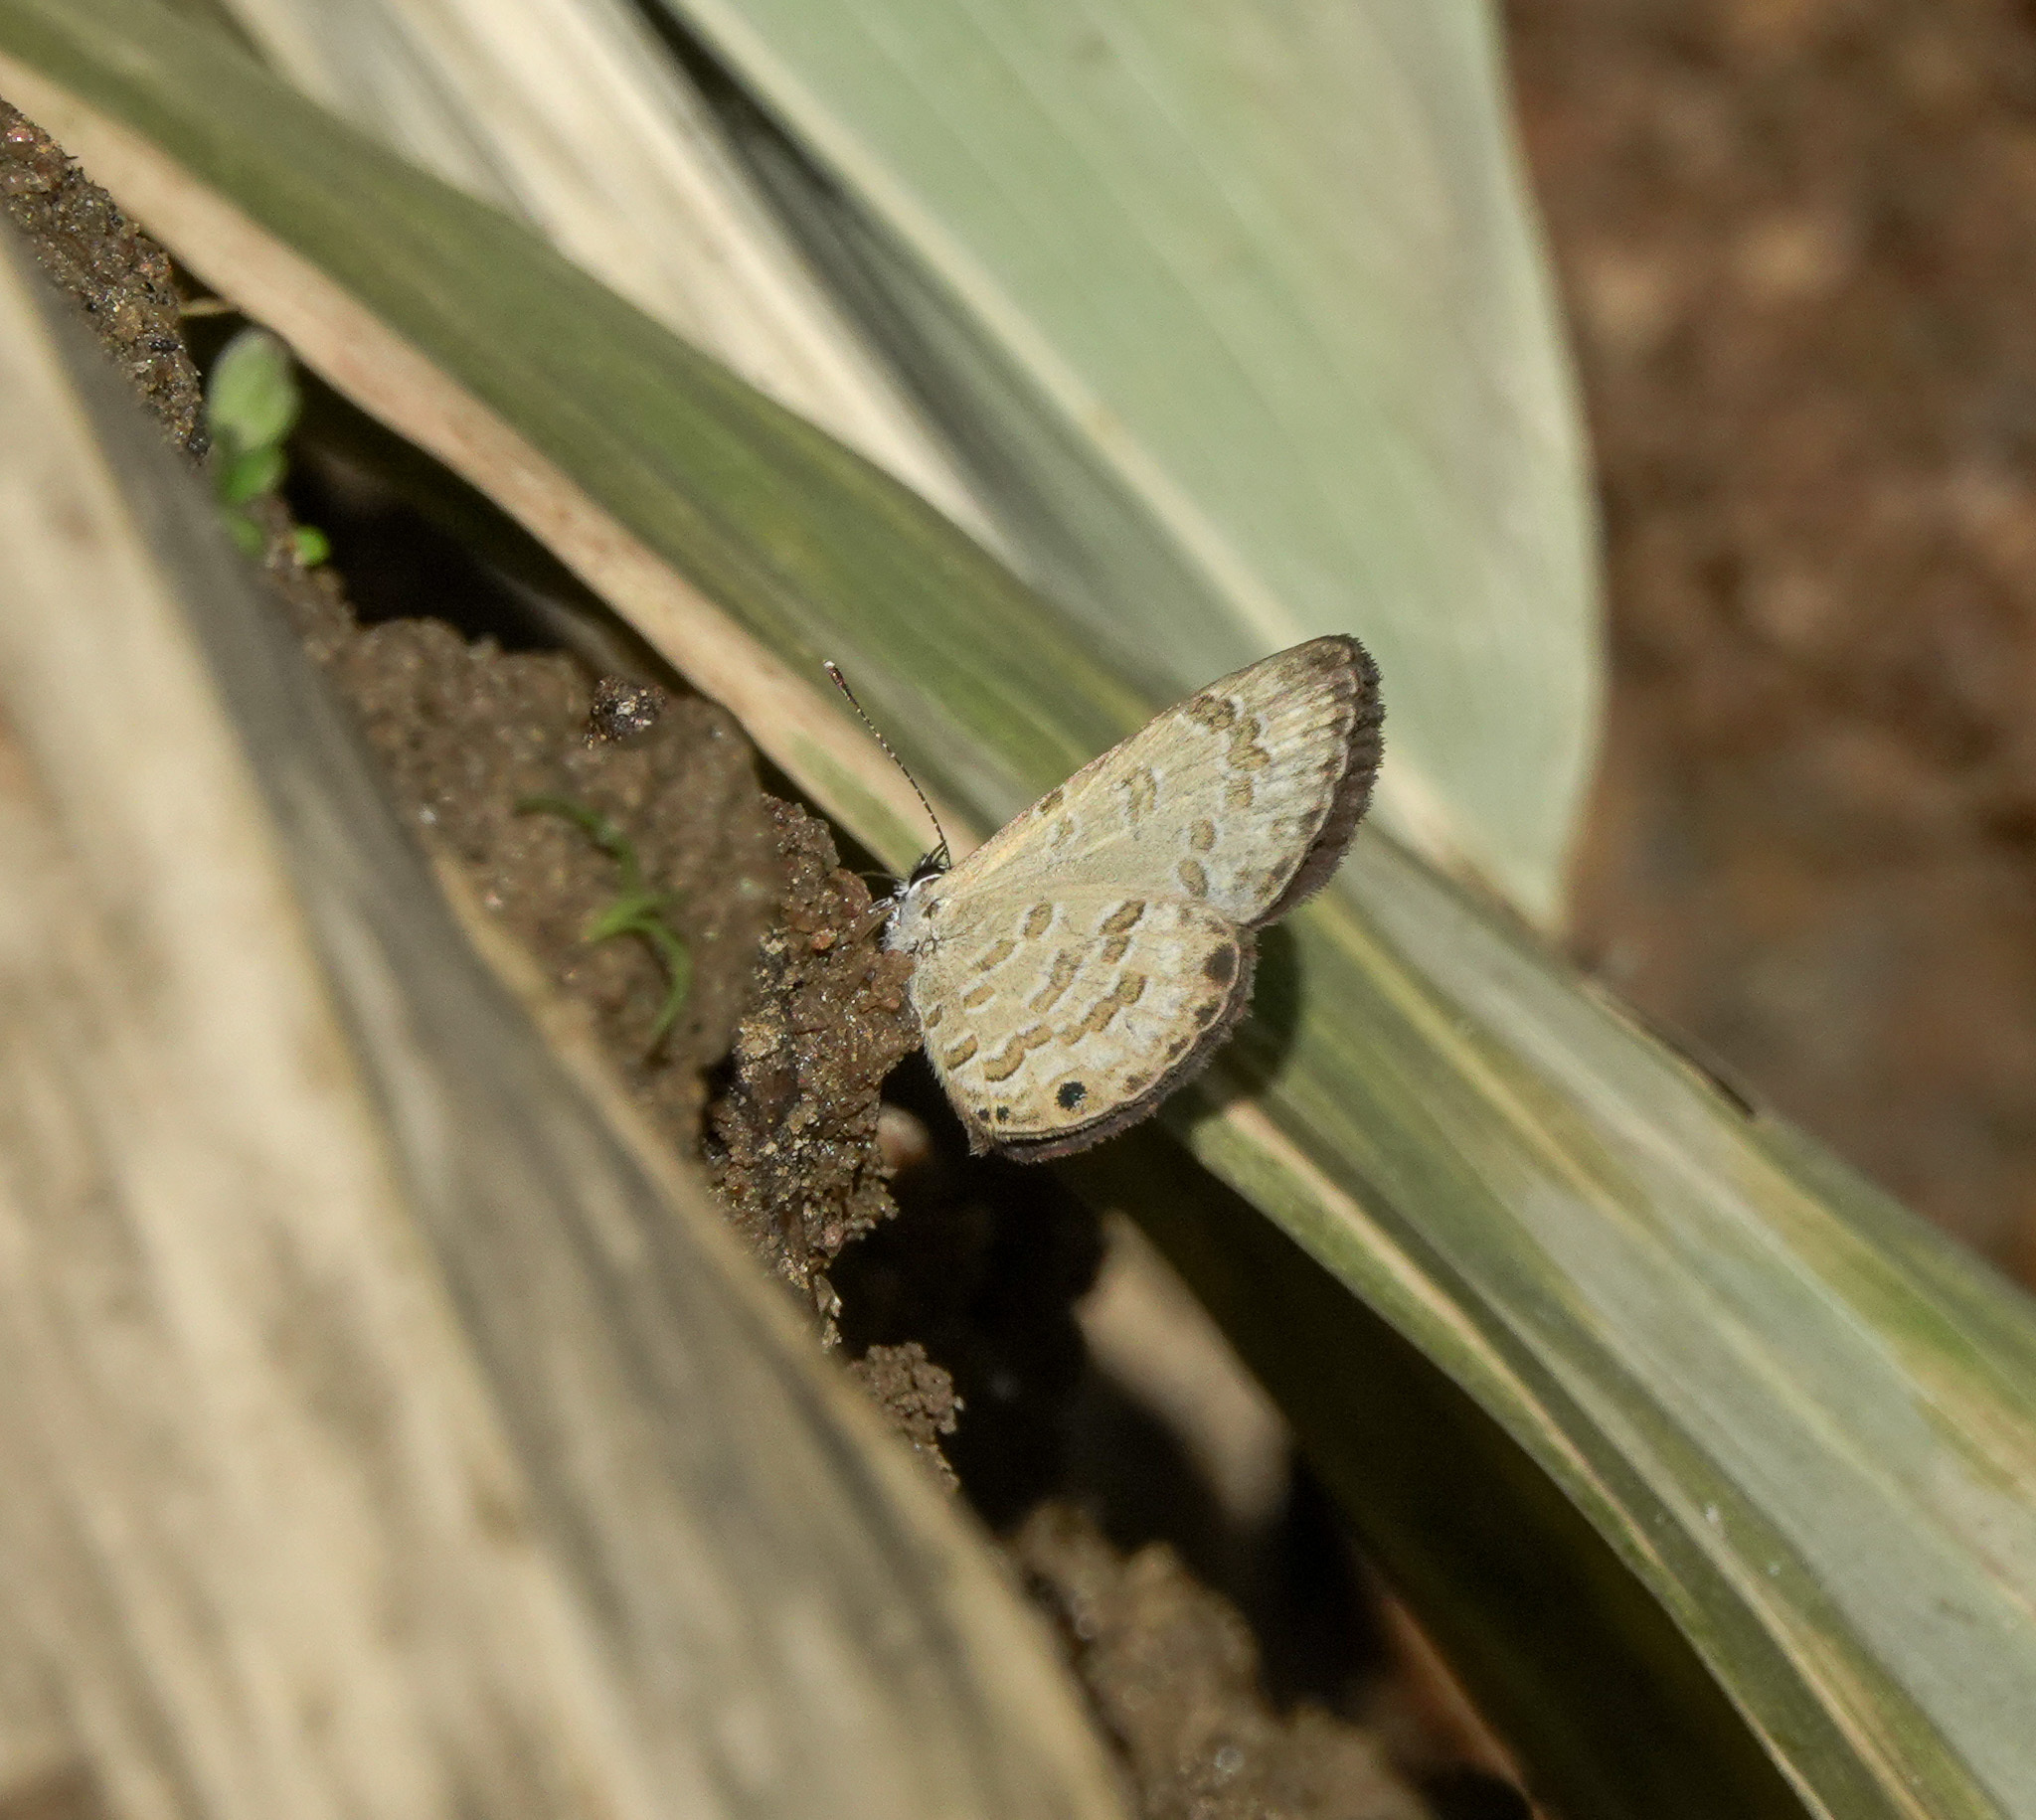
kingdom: Animalia
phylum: Arthropoda
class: Insecta
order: Lepidoptera
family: Lycaenidae
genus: Prosotas
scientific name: Prosotas lutea
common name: Brown lineblue
